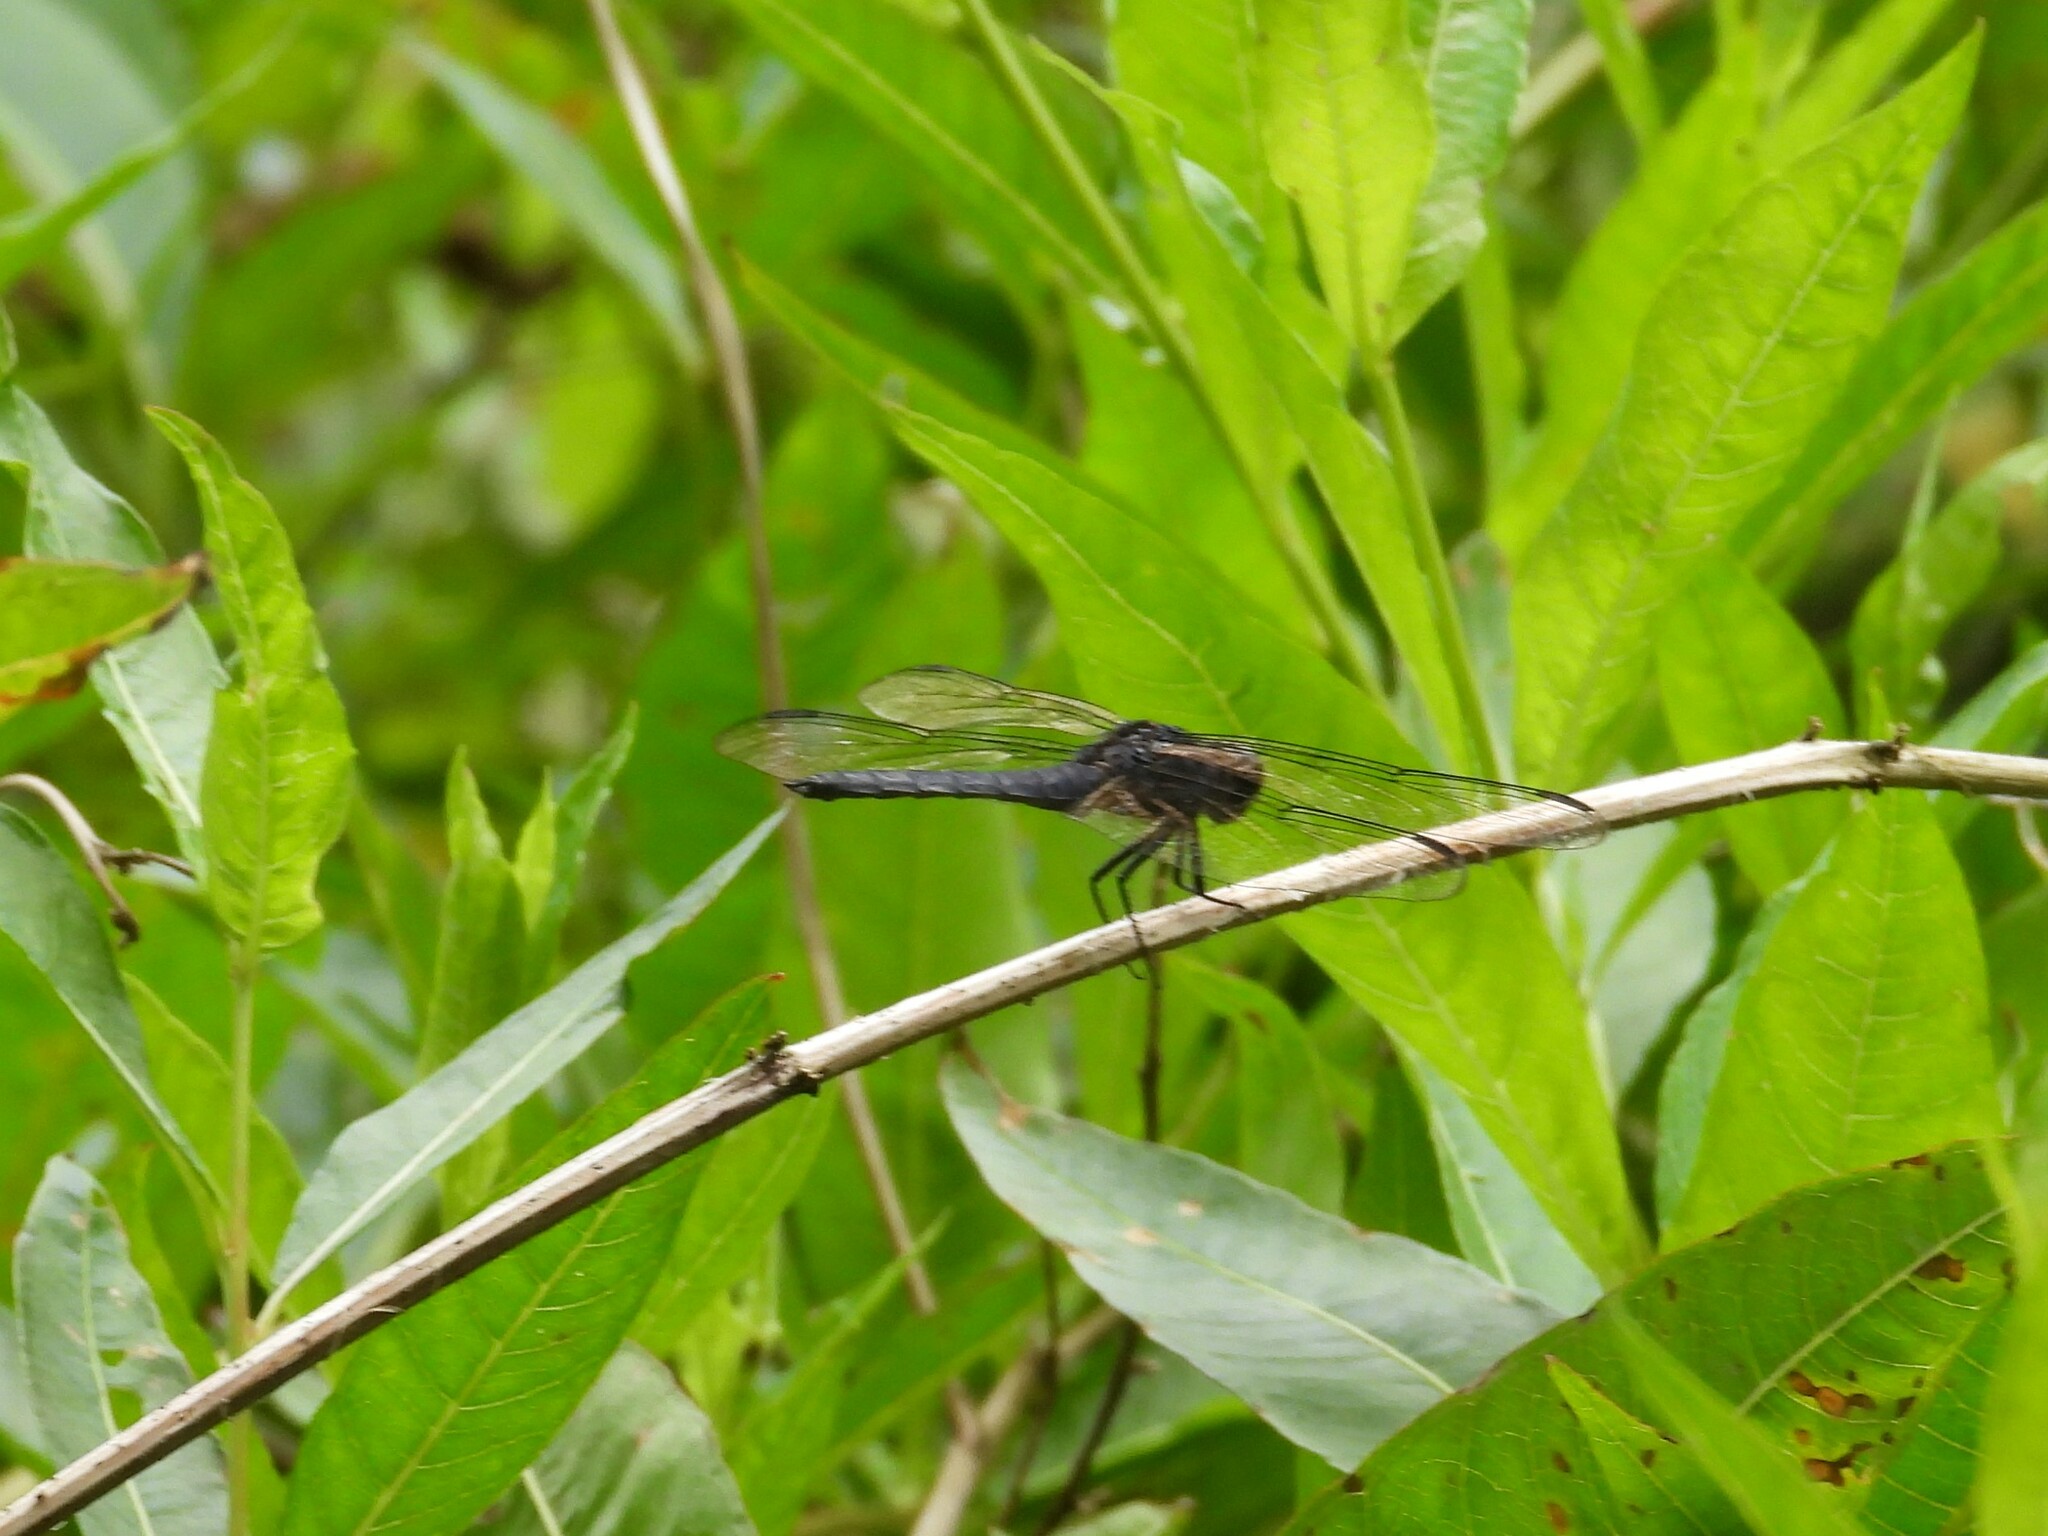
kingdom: Animalia
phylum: Arthropoda
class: Insecta
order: Odonata
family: Libellulidae
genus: Libellula
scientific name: Libellula incesta
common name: Slaty skimmer
